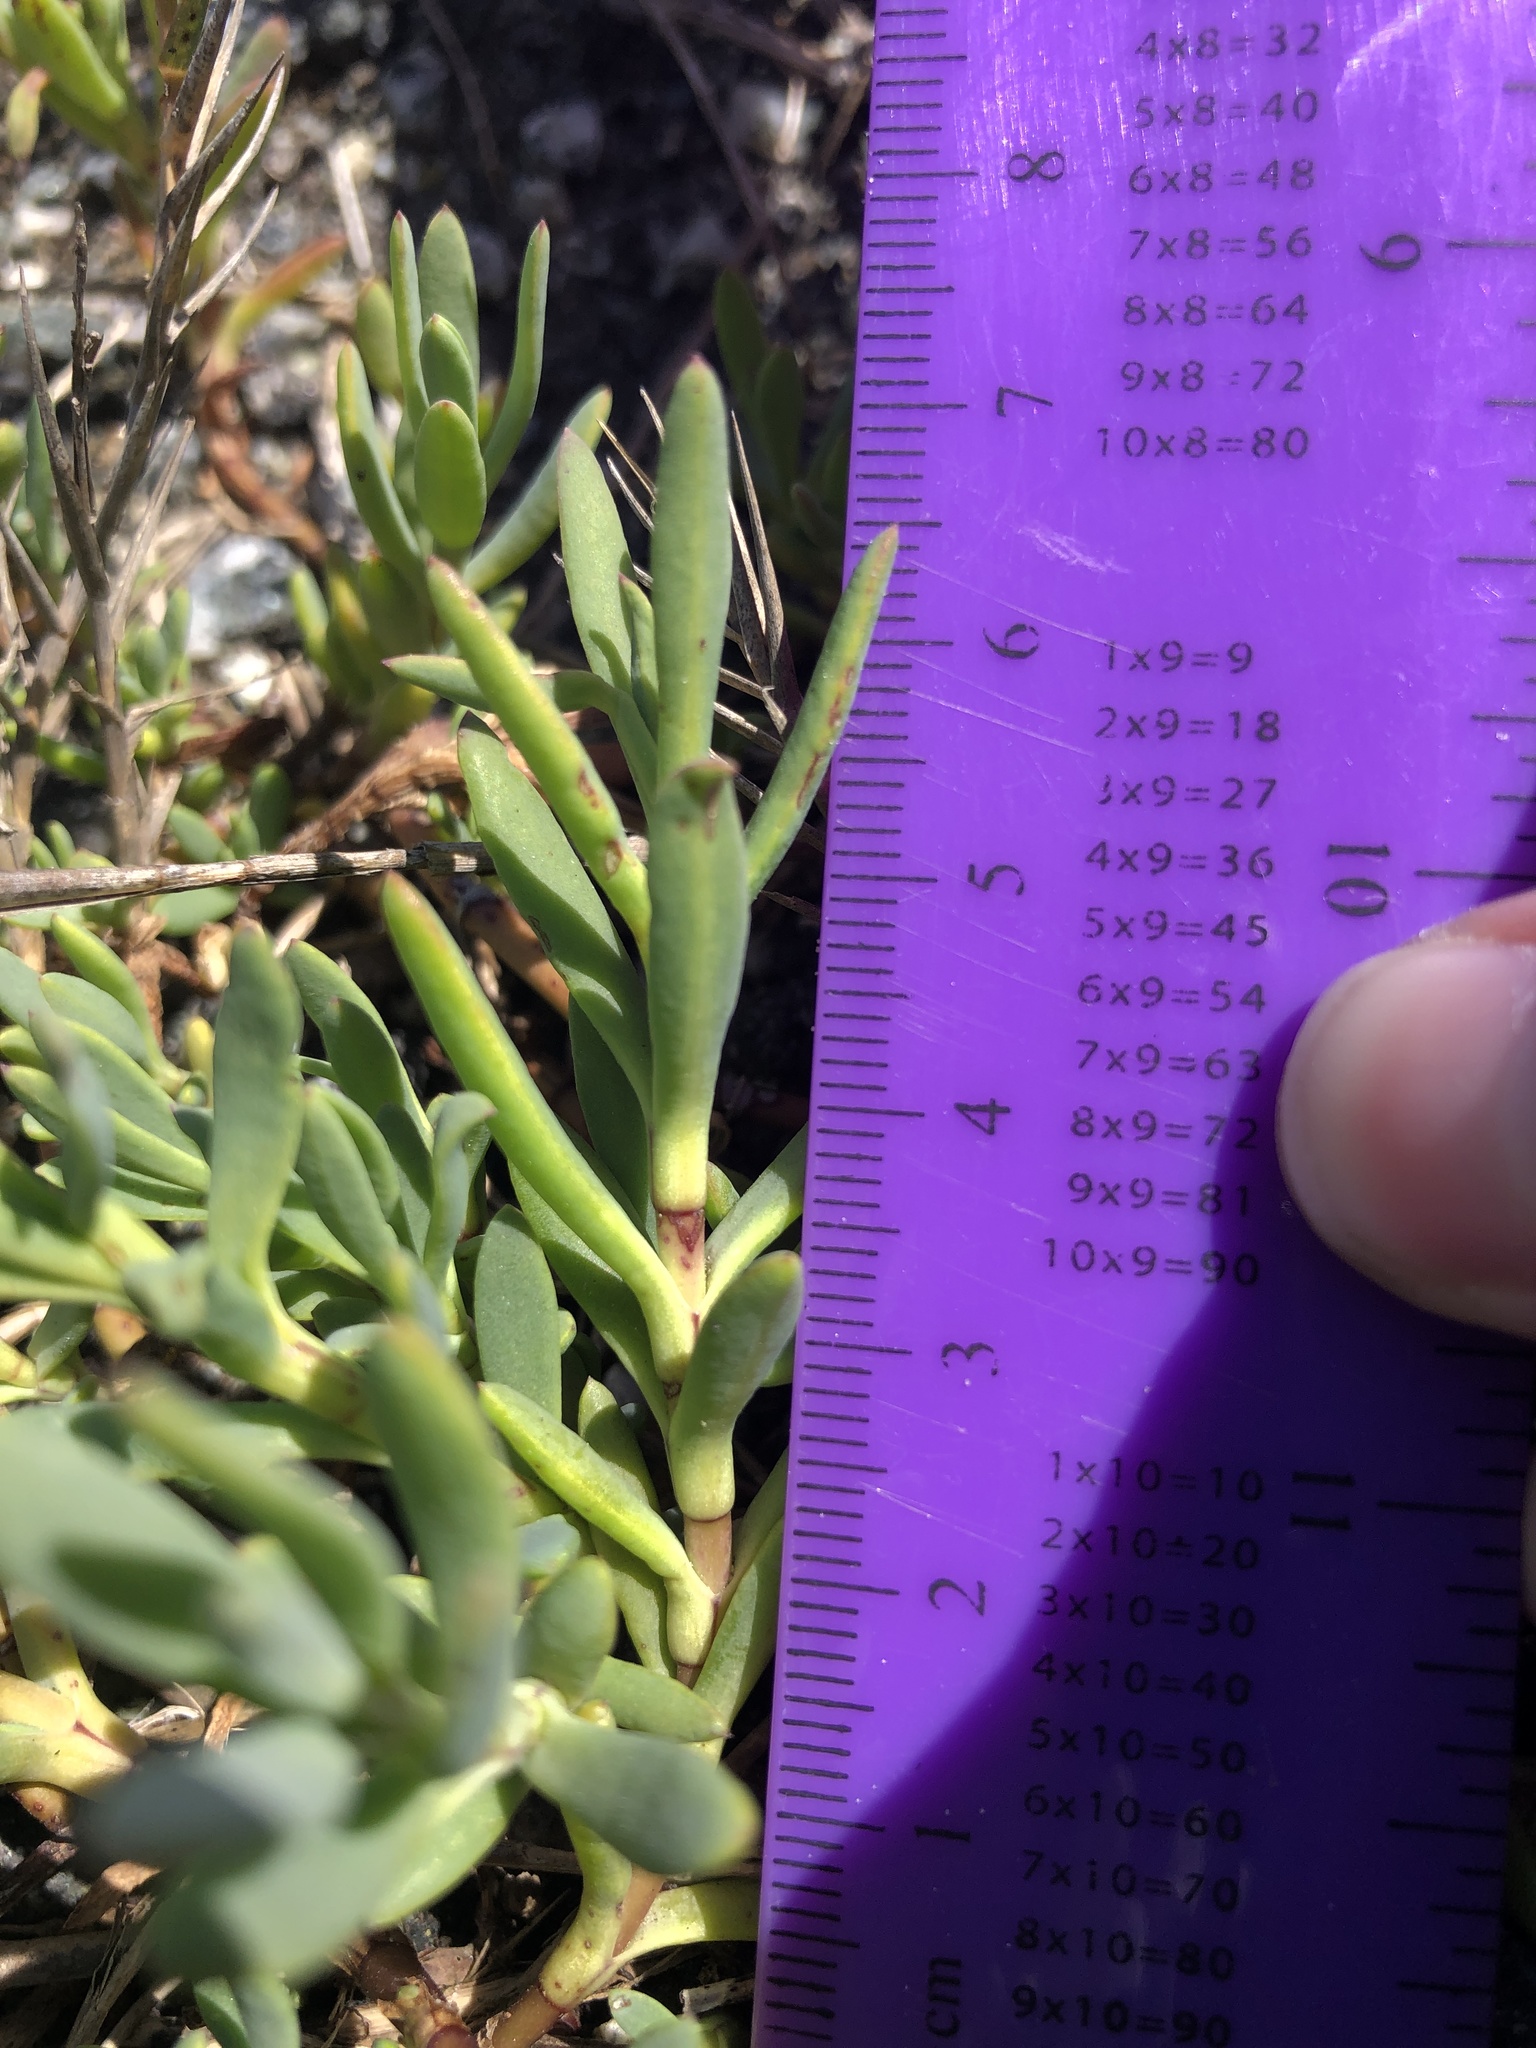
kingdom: Plantae
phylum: Tracheophyta
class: Magnoliopsida
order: Asterales
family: Asteraceae
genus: Jaumea
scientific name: Jaumea carnosa
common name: Fleshy jaumea
